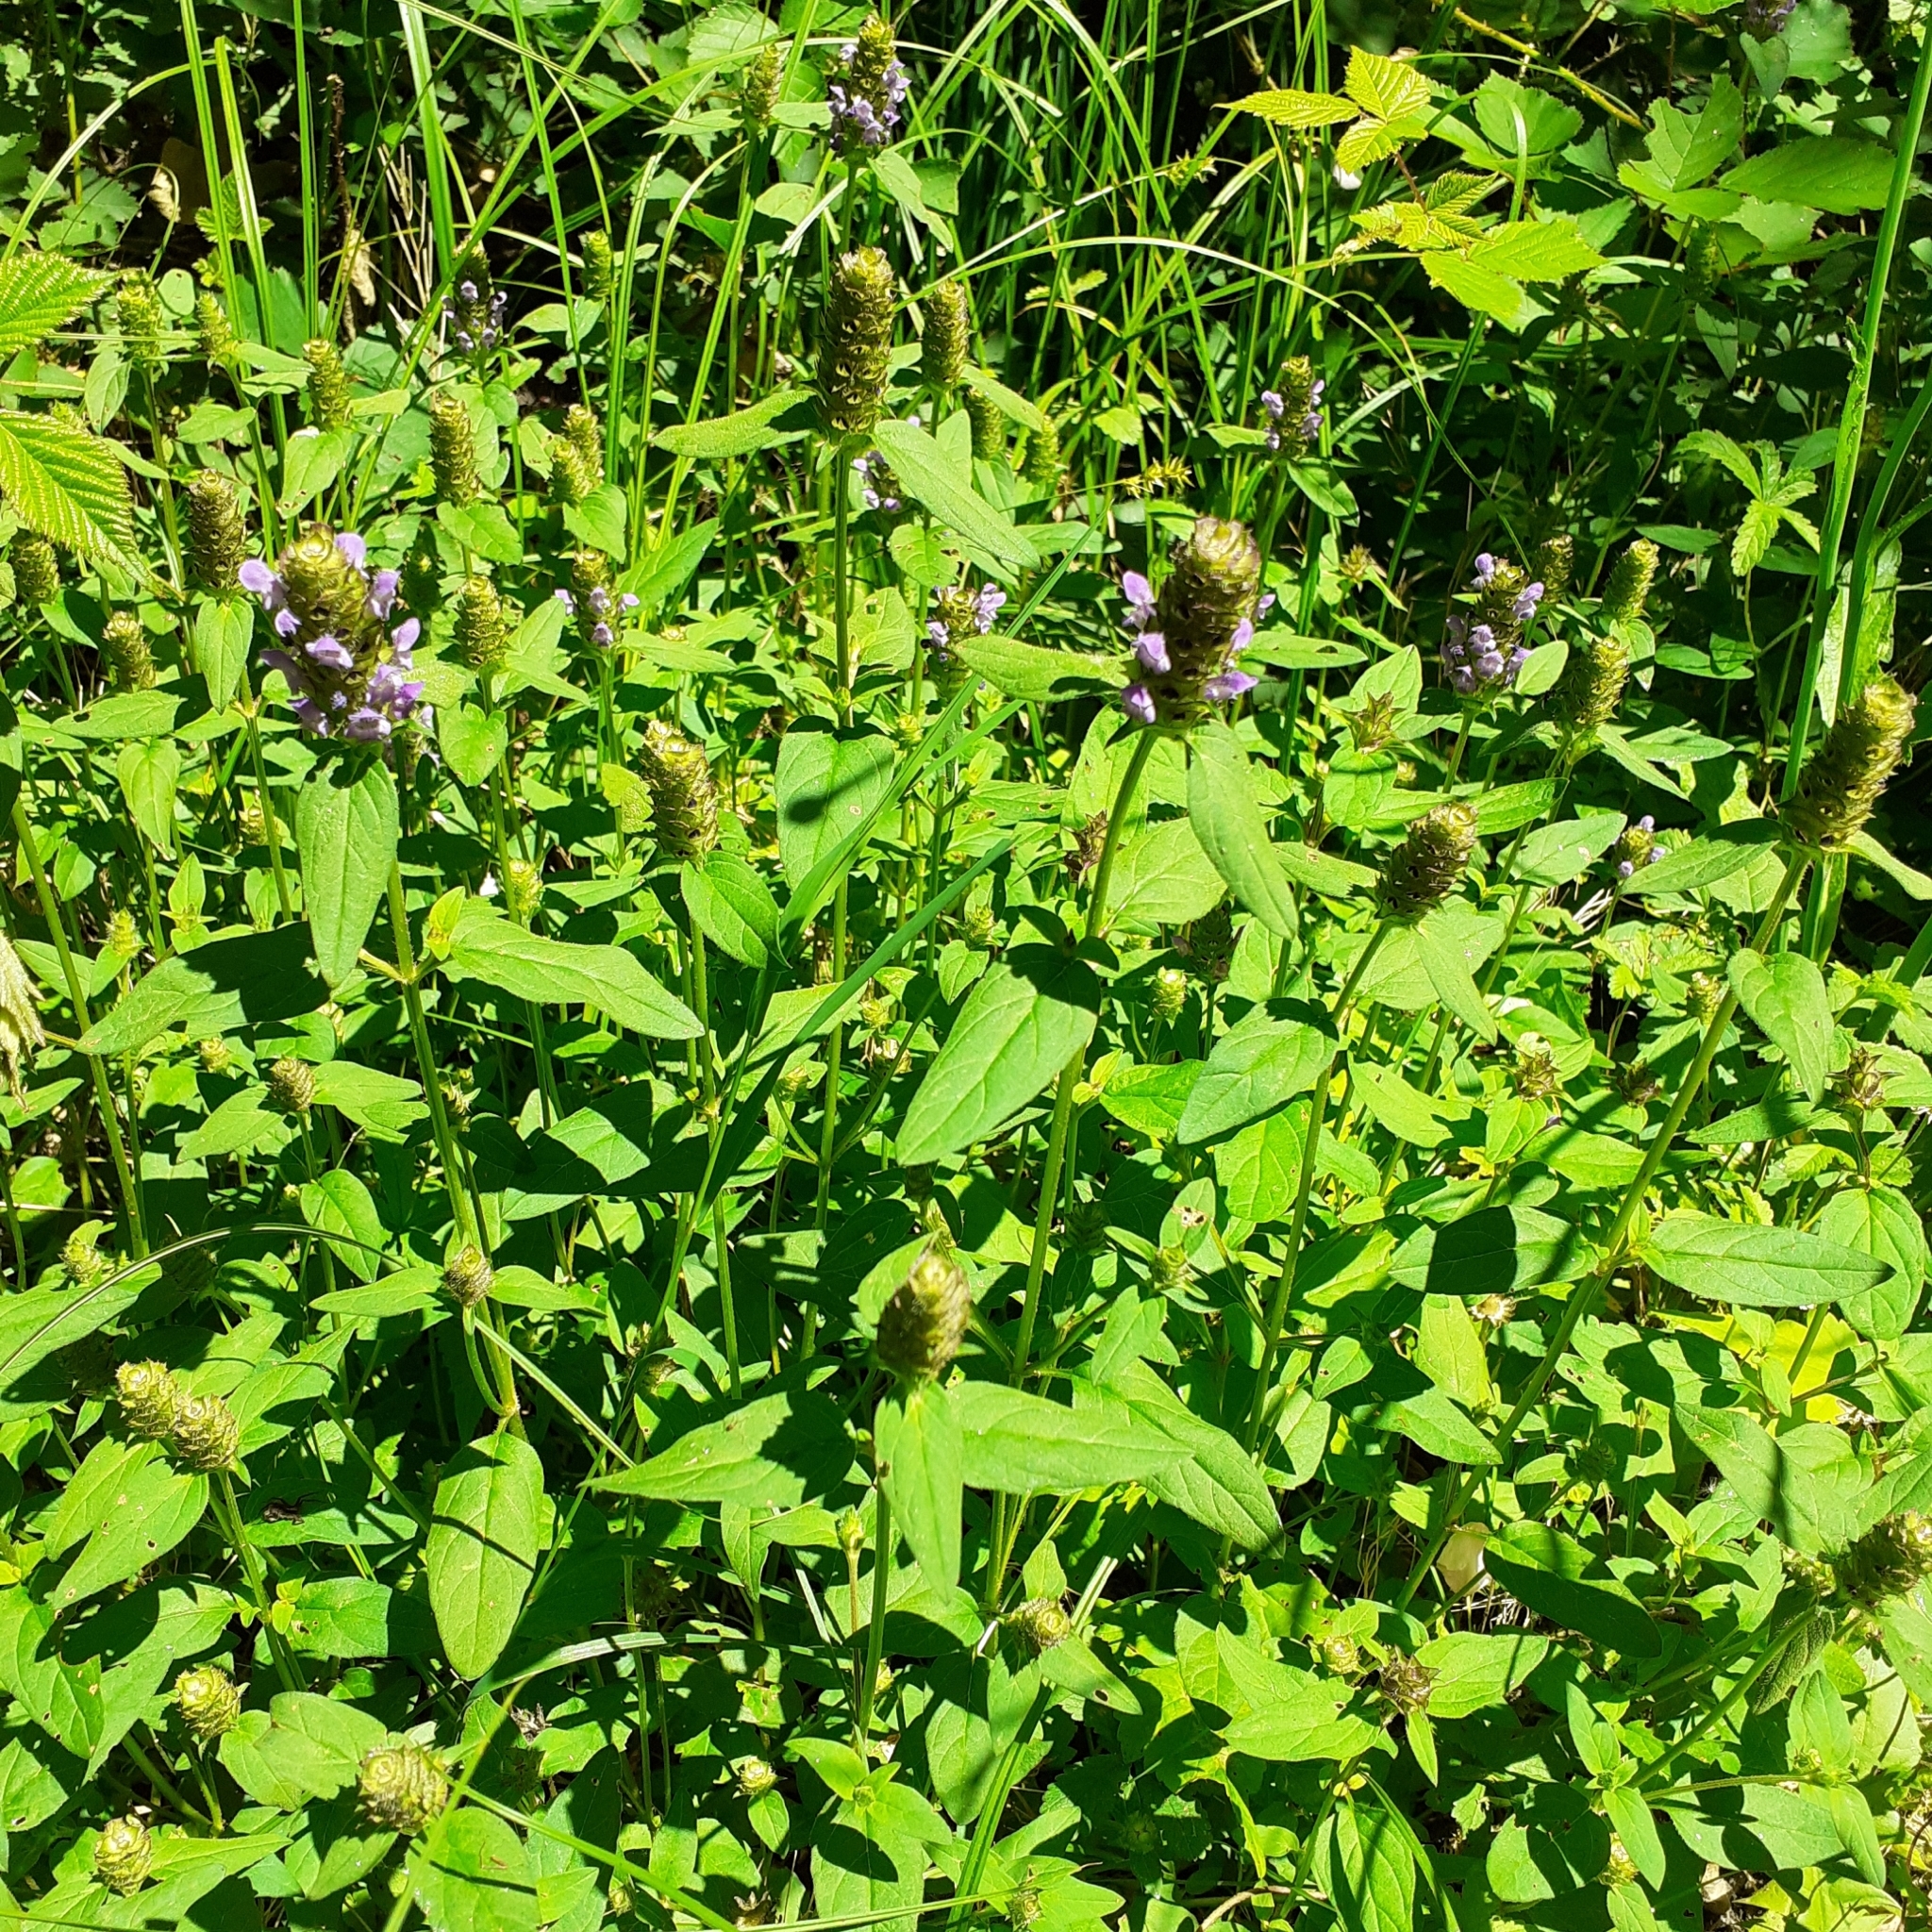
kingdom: Plantae
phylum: Tracheophyta
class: Magnoliopsida
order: Lamiales
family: Lamiaceae
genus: Prunella
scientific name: Prunella vulgaris
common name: Heal-all
